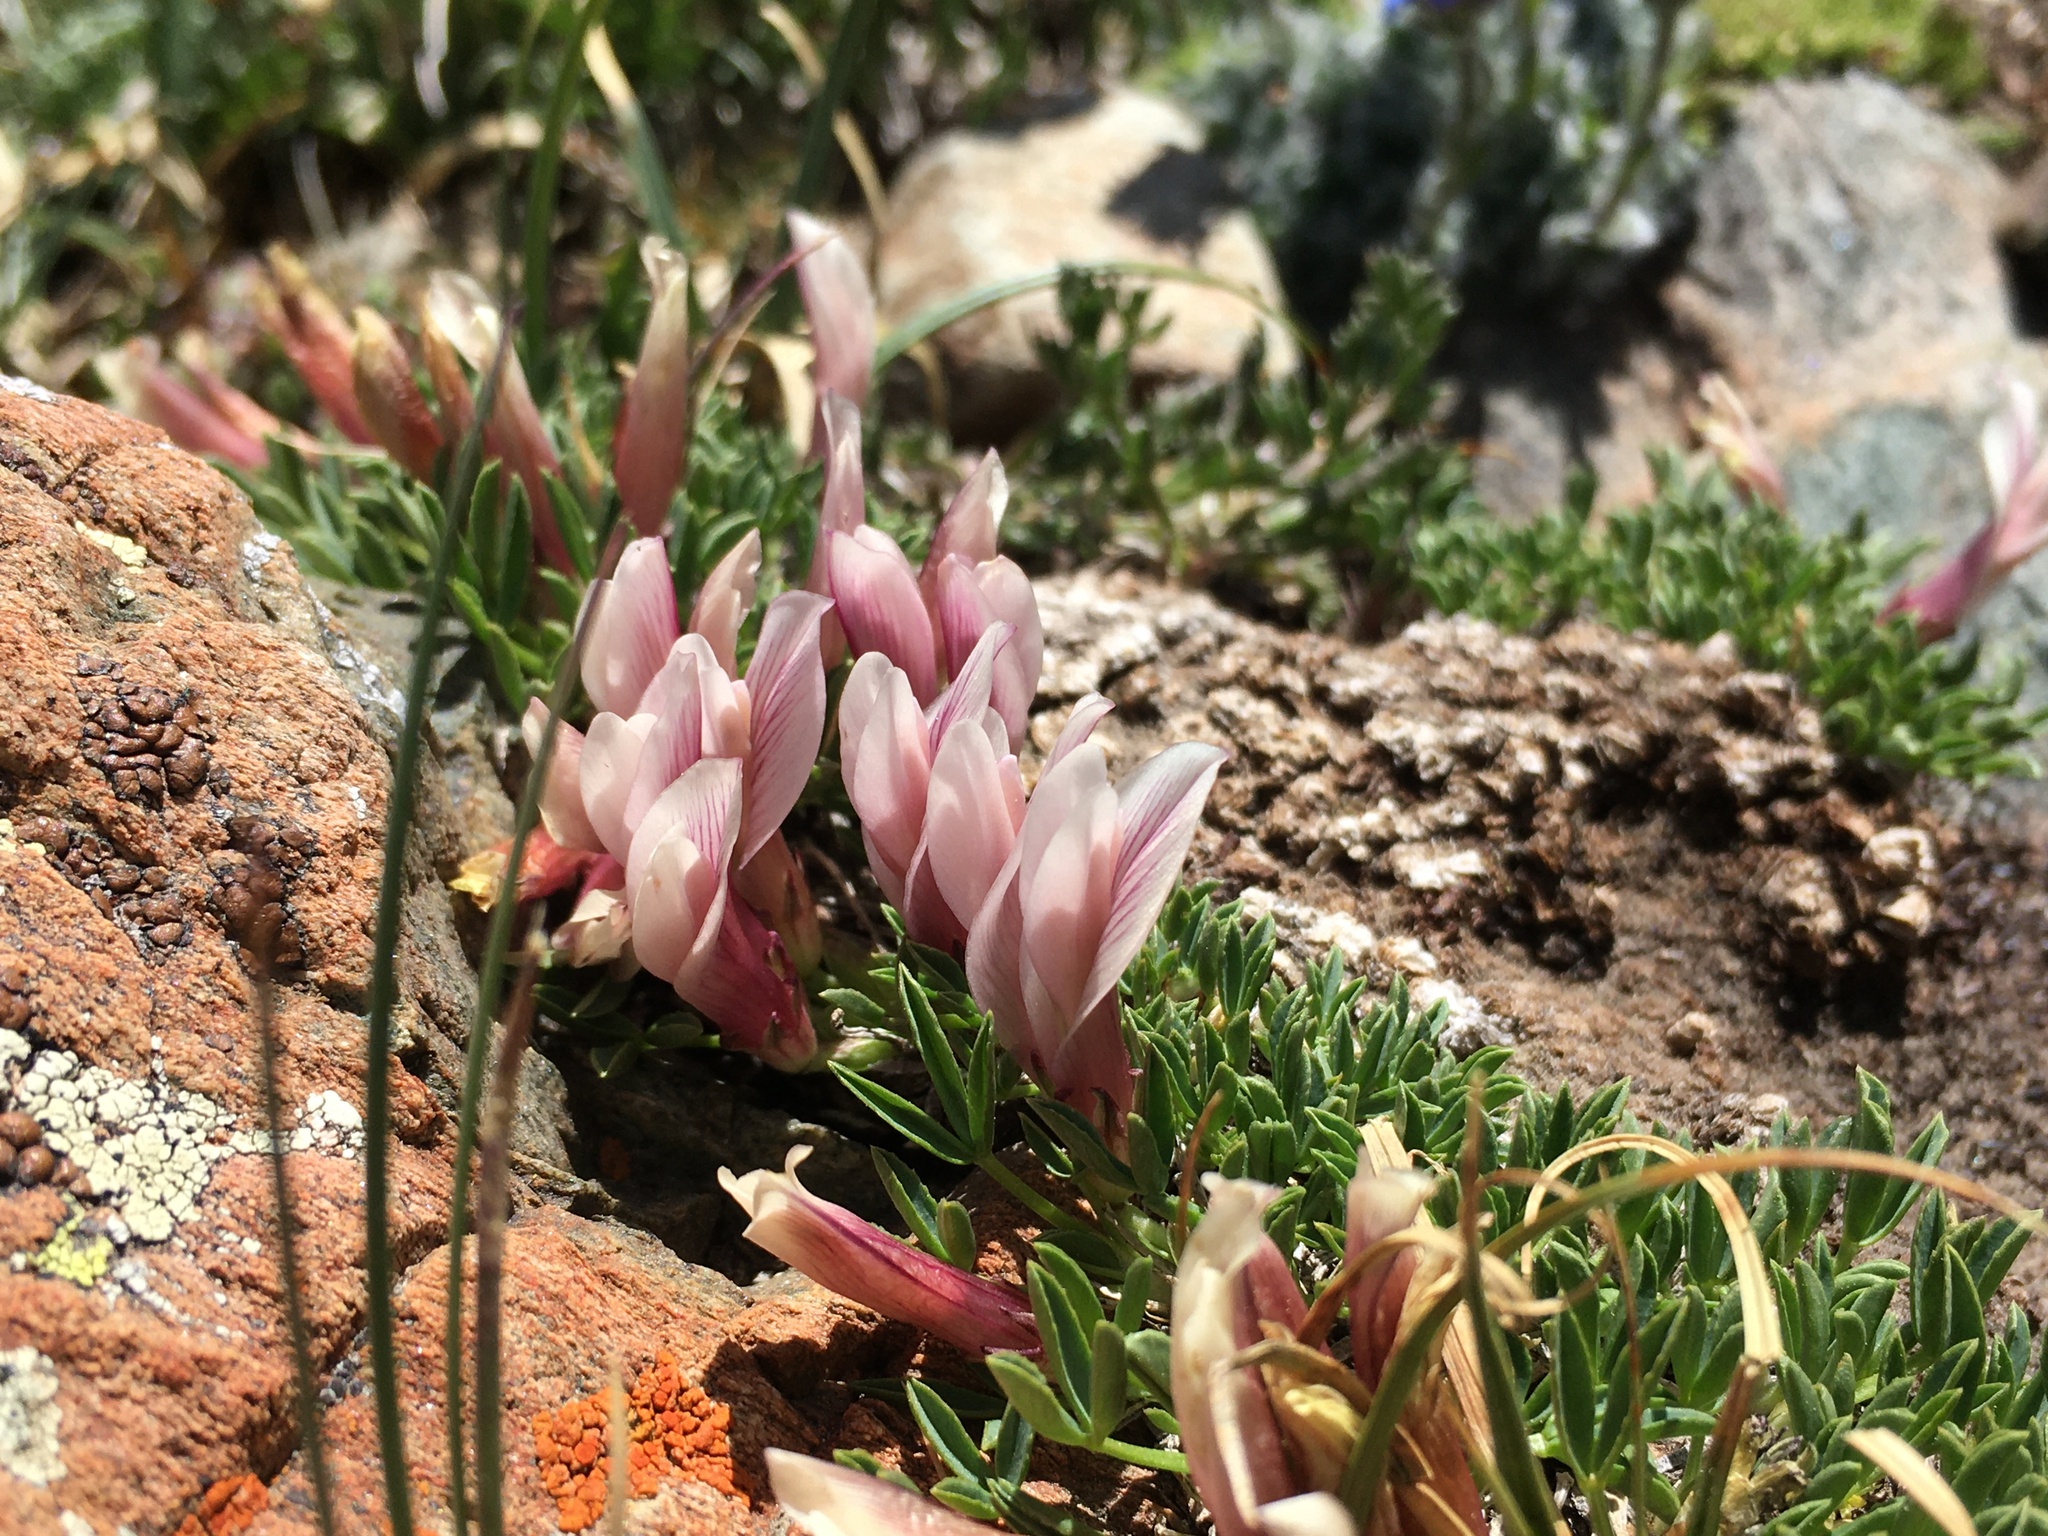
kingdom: Plantae
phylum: Tracheophyta
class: Magnoliopsida
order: Fabales
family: Fabaceae
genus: Trifolium
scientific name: Trifolium nanum
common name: Tundra clover
